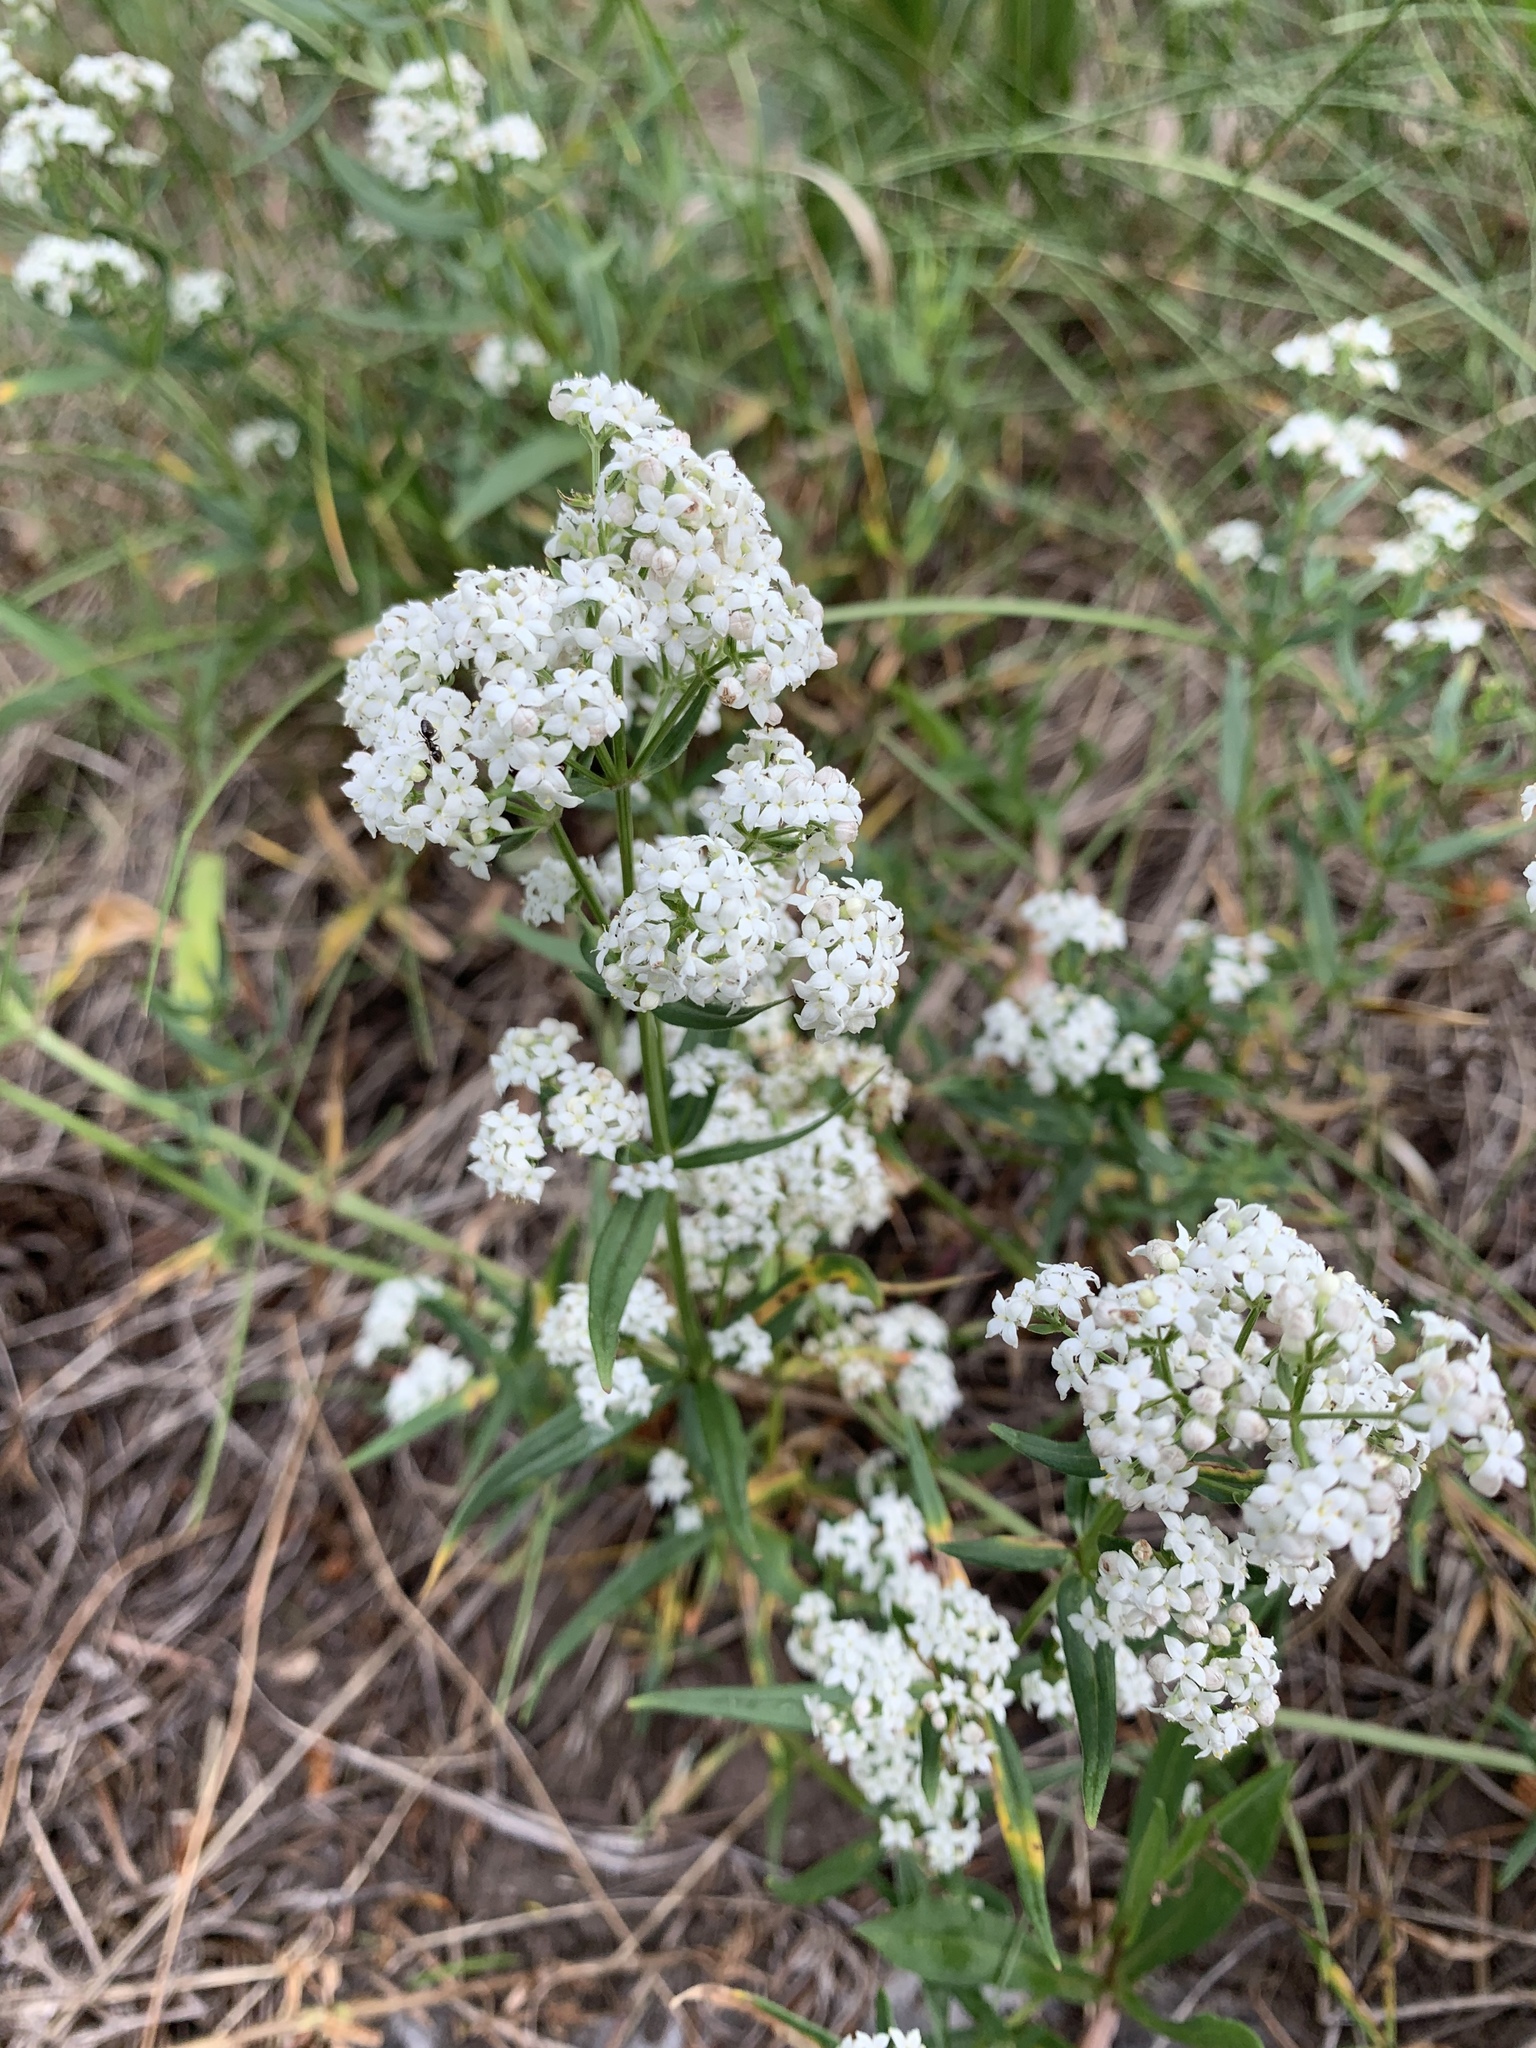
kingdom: Plantae
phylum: Tracheophyta
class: Magnoliopsida
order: Gentianales
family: Rubiaceae
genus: Galium
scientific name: Galium boreale
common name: Northern bedstraw
